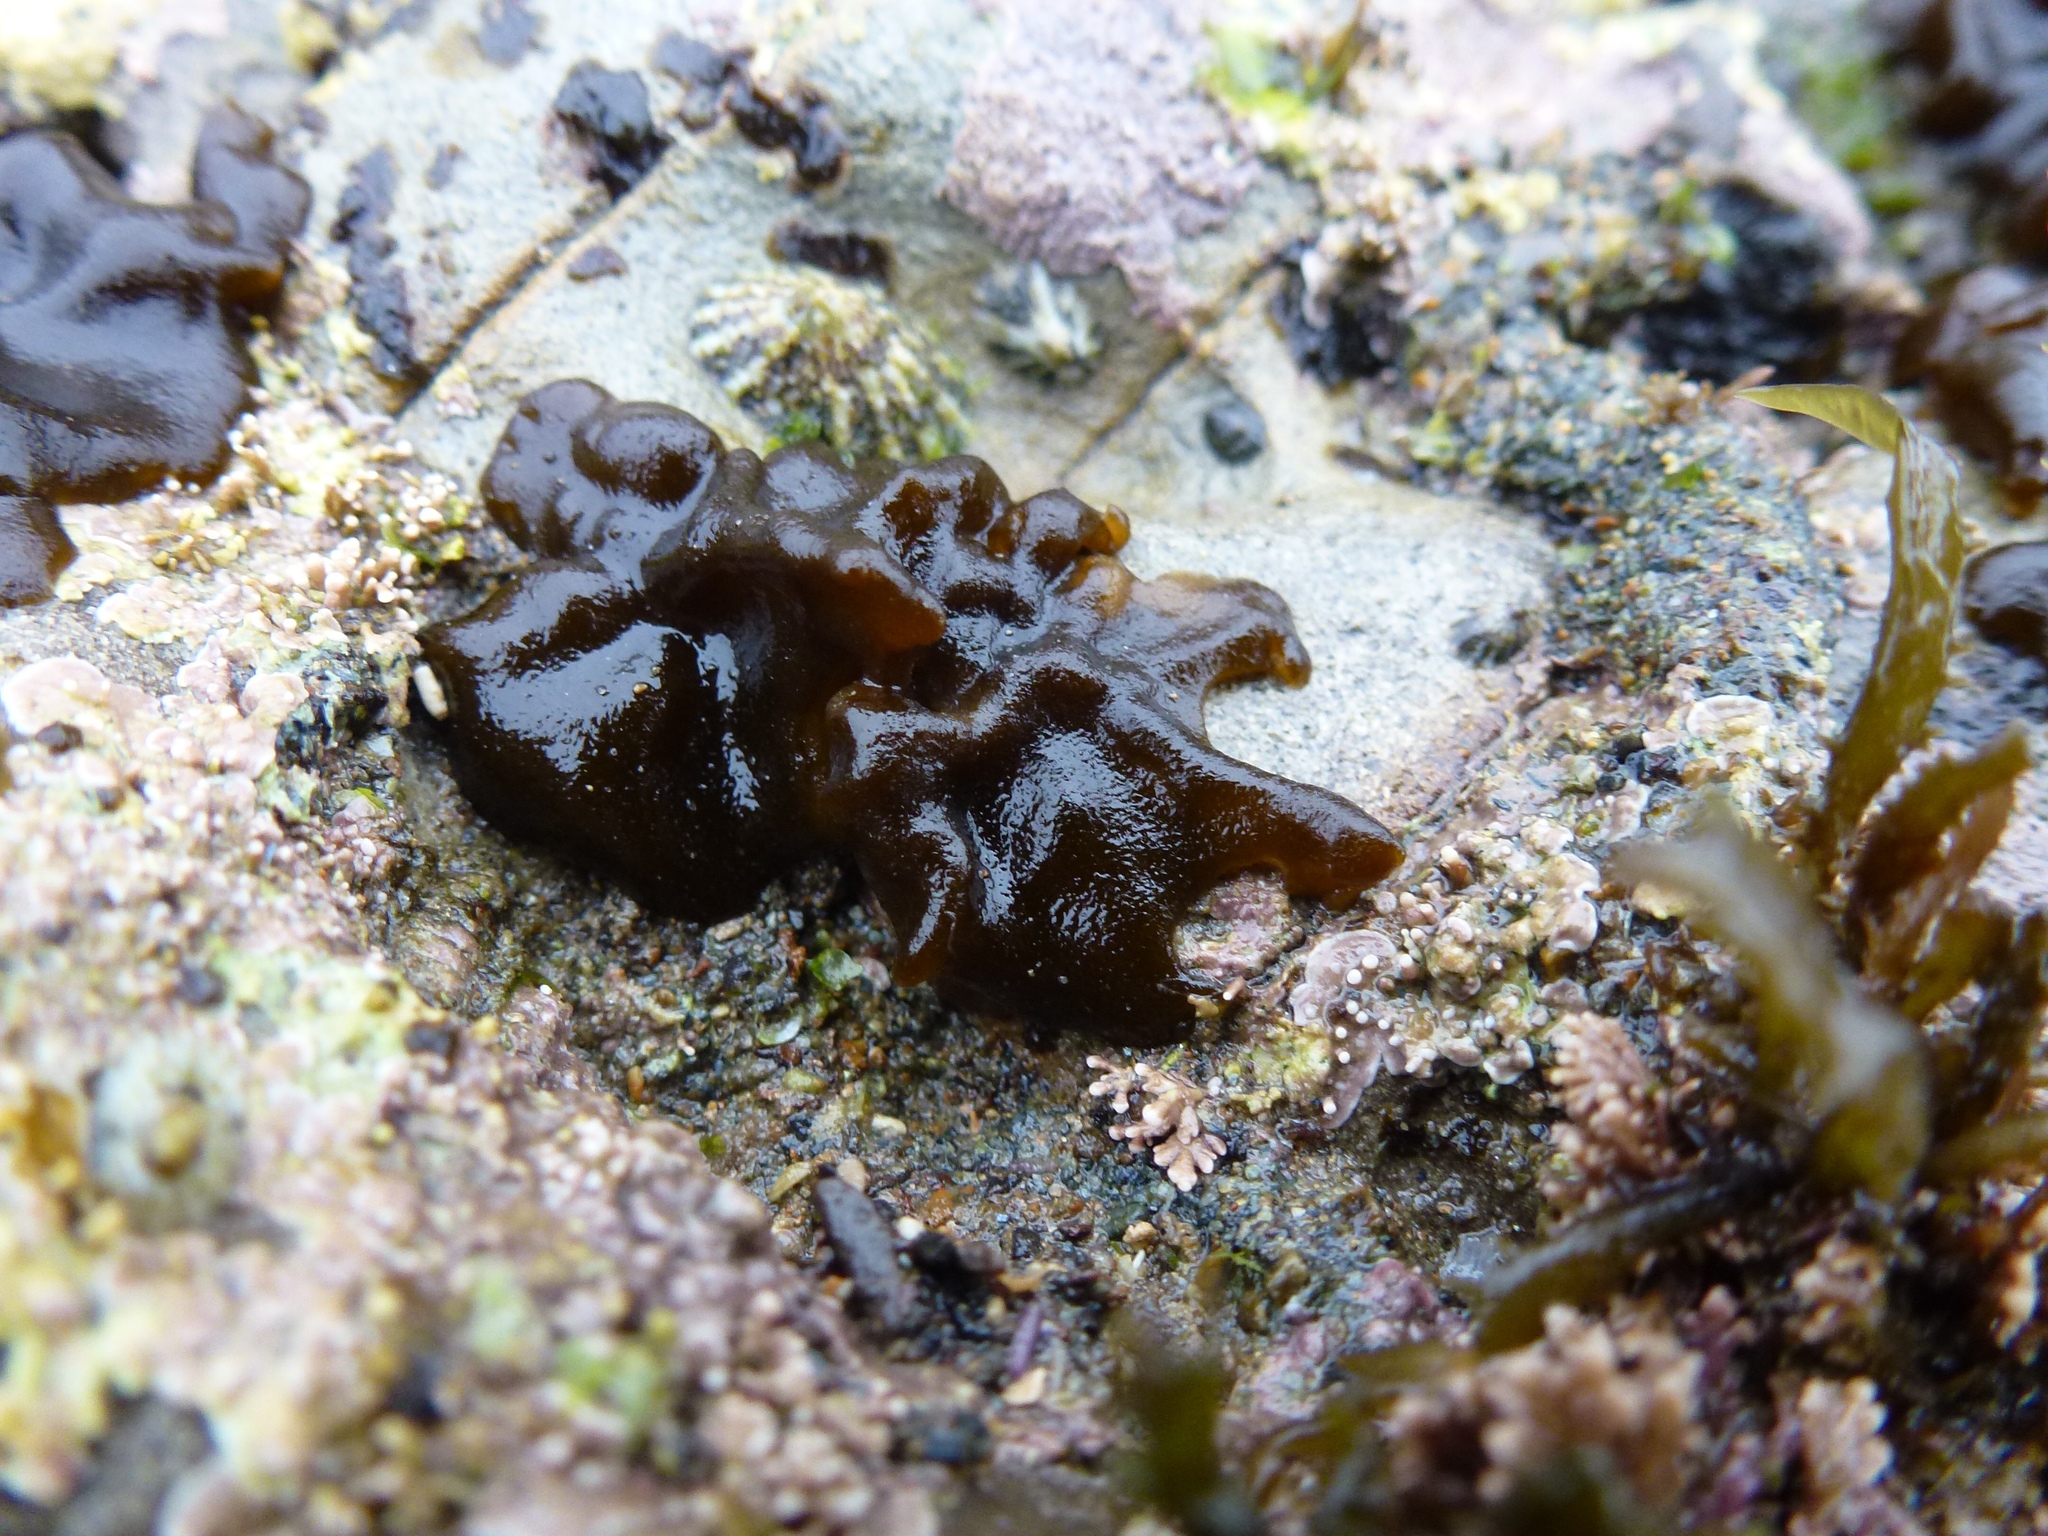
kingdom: Chromista
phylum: Ochrophyta
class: Phaeophyceae
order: Ectocarpales
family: Petrospongiaceae
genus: Petrospongium
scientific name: Petrospongium rugosum
